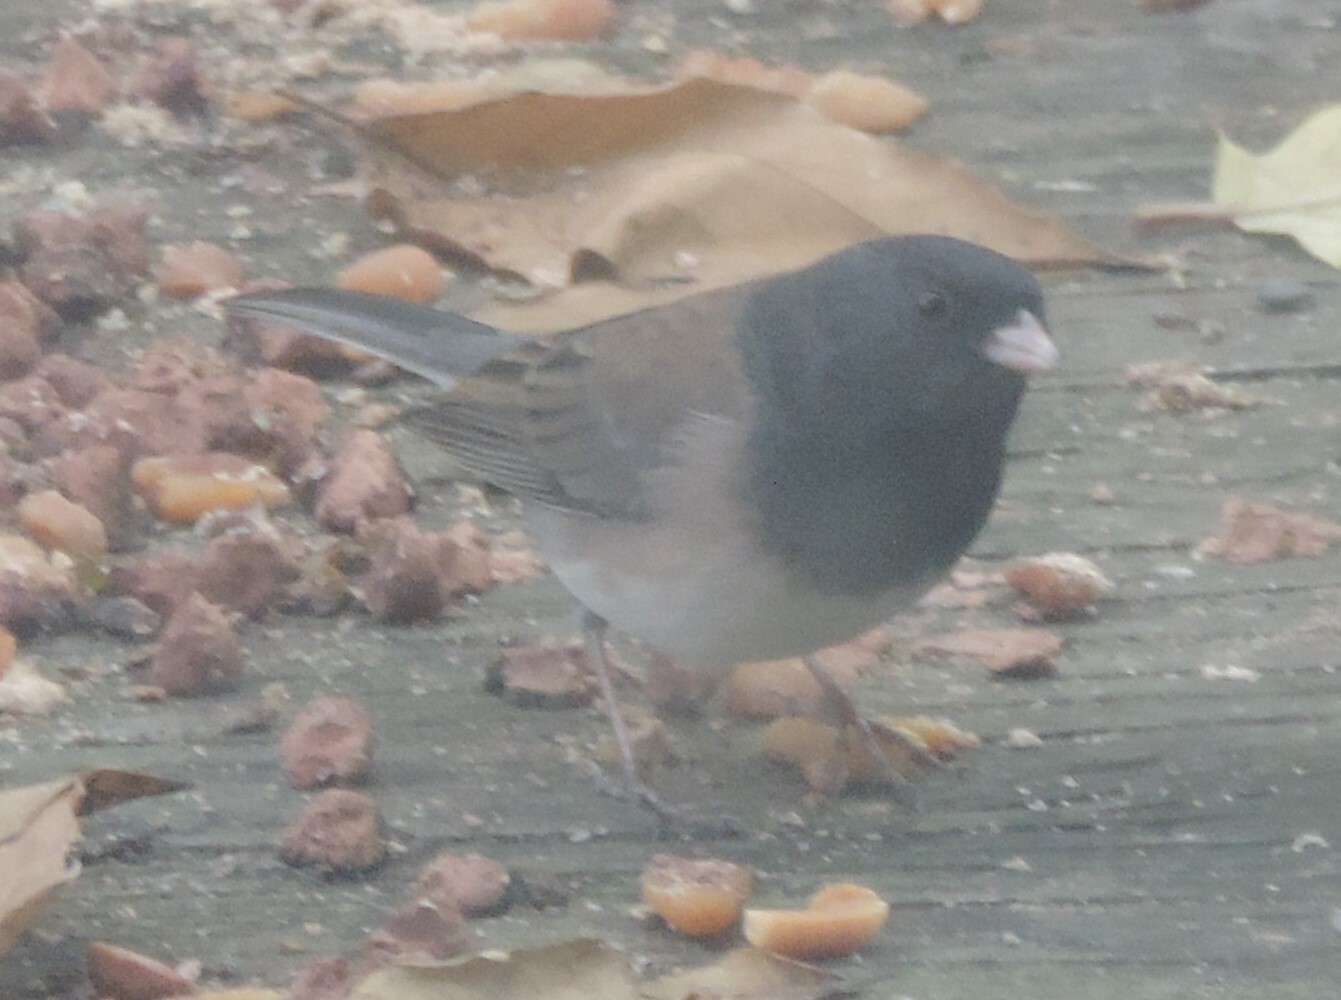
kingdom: Animalia
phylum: Chordata
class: Aves
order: Passeriformes
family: Passerellidae
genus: Junco
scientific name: Junco hyemalis
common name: Dark-eyed junco
